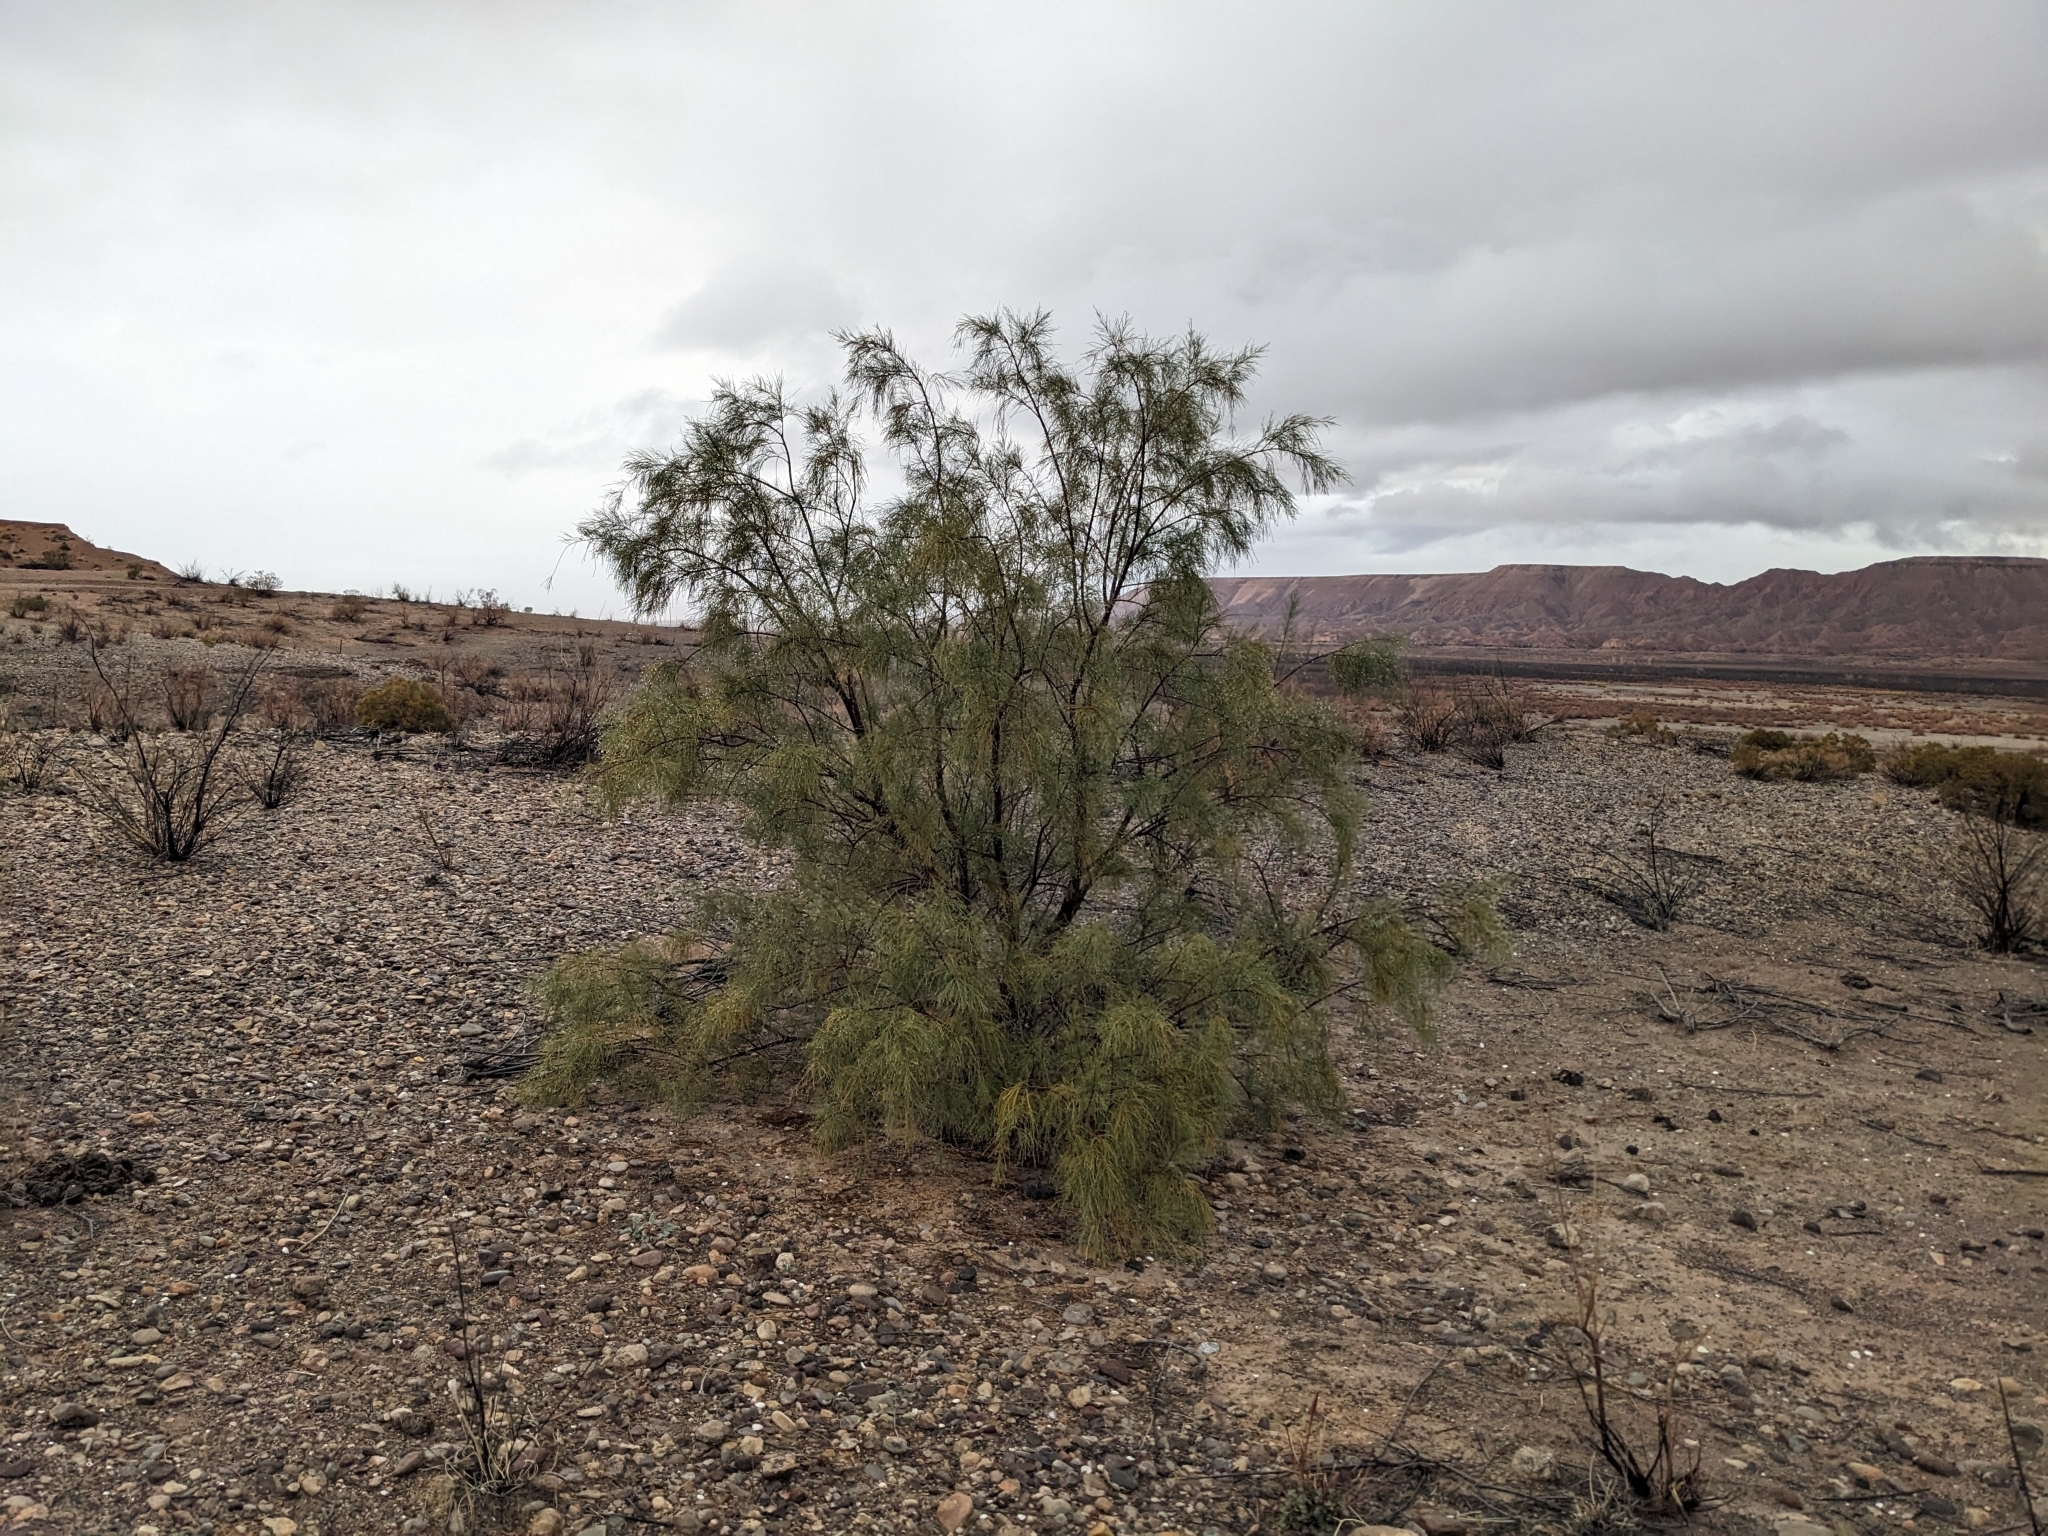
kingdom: Plantae
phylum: Tracheophyta
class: Magnoliopsida
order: Caryophyllales
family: Tamaricaceae
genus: Tamarix
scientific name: Tamarix aphylla
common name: Athel tamarisk
